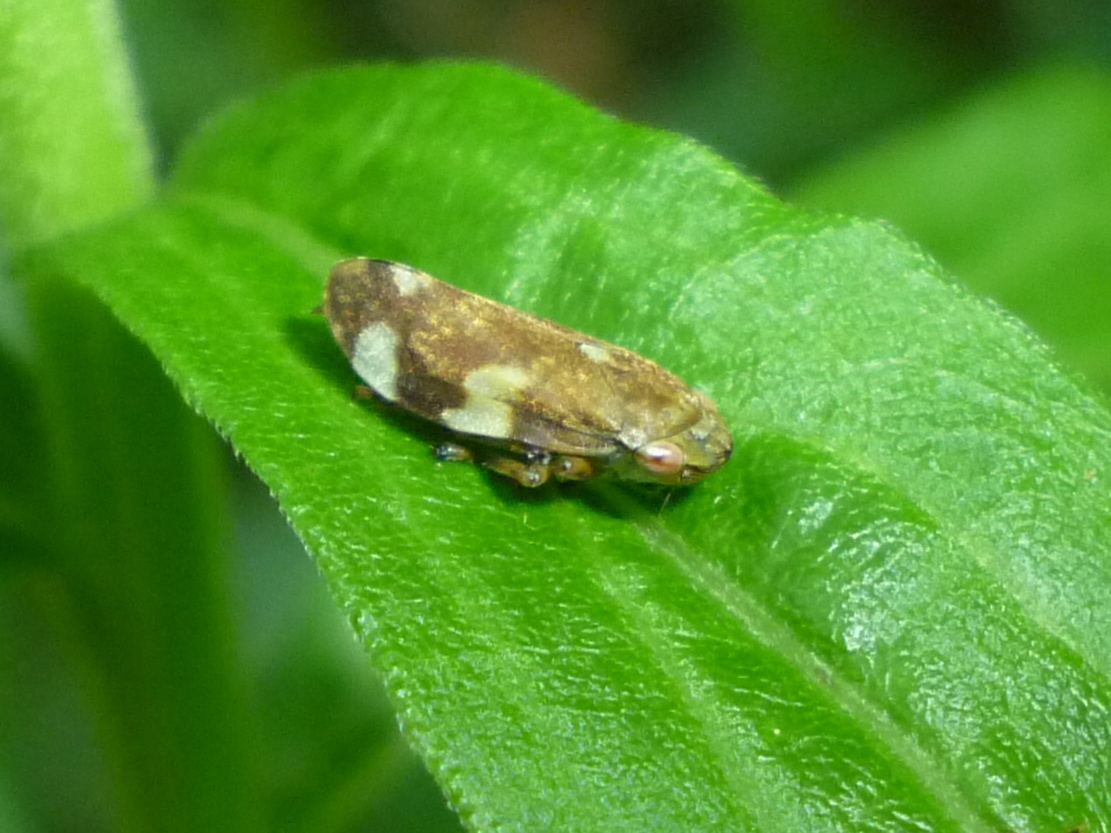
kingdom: Animalia
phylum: Arthropoda
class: Insecta
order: Hemiptera
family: Aphrophoridae
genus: Philaenus
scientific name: Philaenus spumarius
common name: Meadow spittlebug
